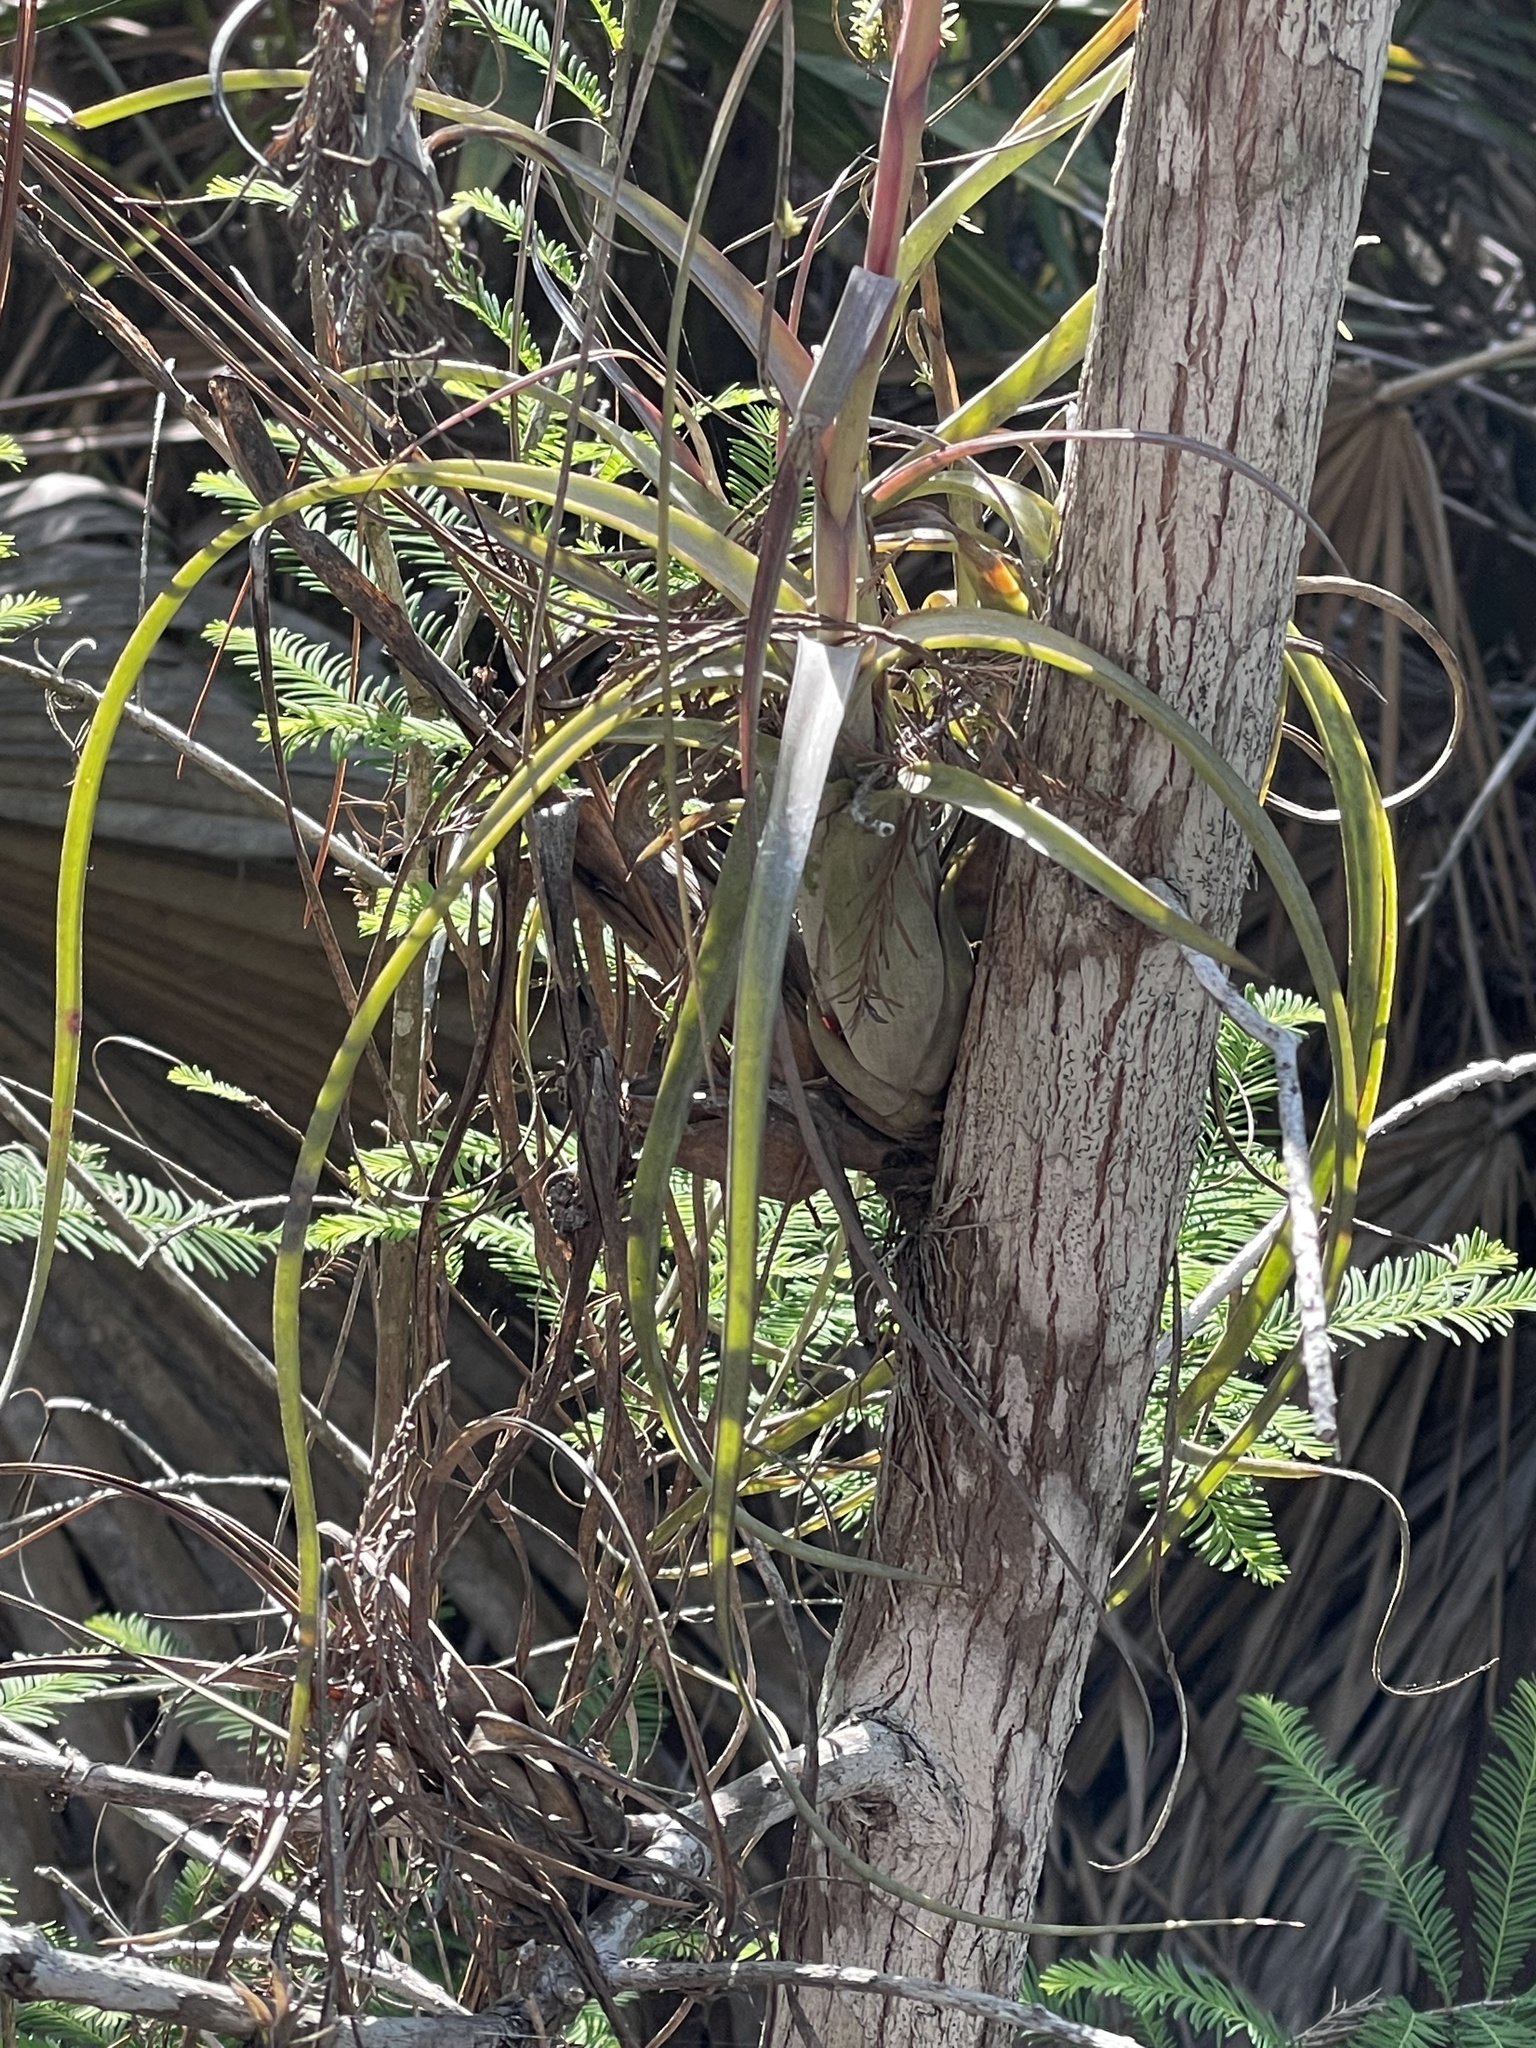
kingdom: Plantae
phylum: Tracheophyta
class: Liliopsida
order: Poales
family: Bromeliaceae
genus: Tillandsia
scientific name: Tillandsia balbisiana
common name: Northern needleleaf
